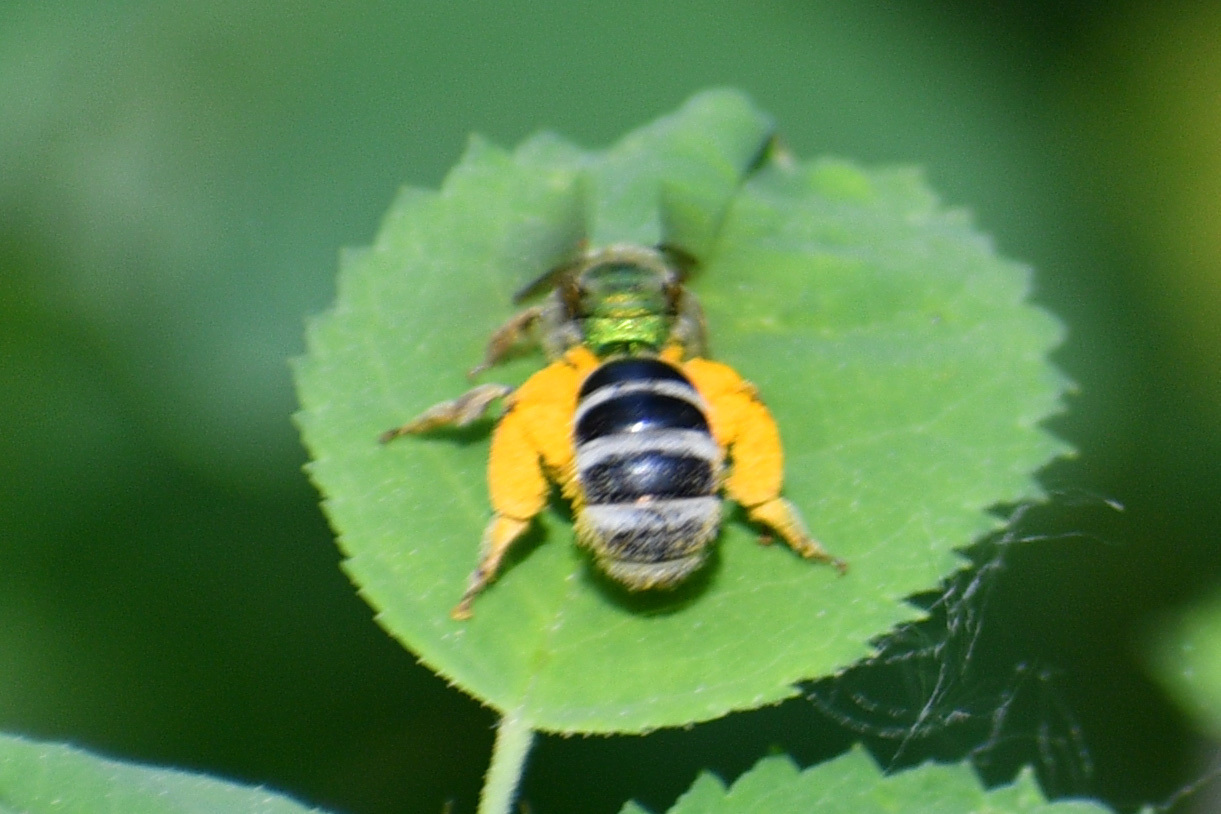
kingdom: Animalia
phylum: Arthropoda
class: Insecta
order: Hymenoptera
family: Halictidae
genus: Agapostemon
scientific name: Agapostemon virescens
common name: Bicolored striped sweat bee
